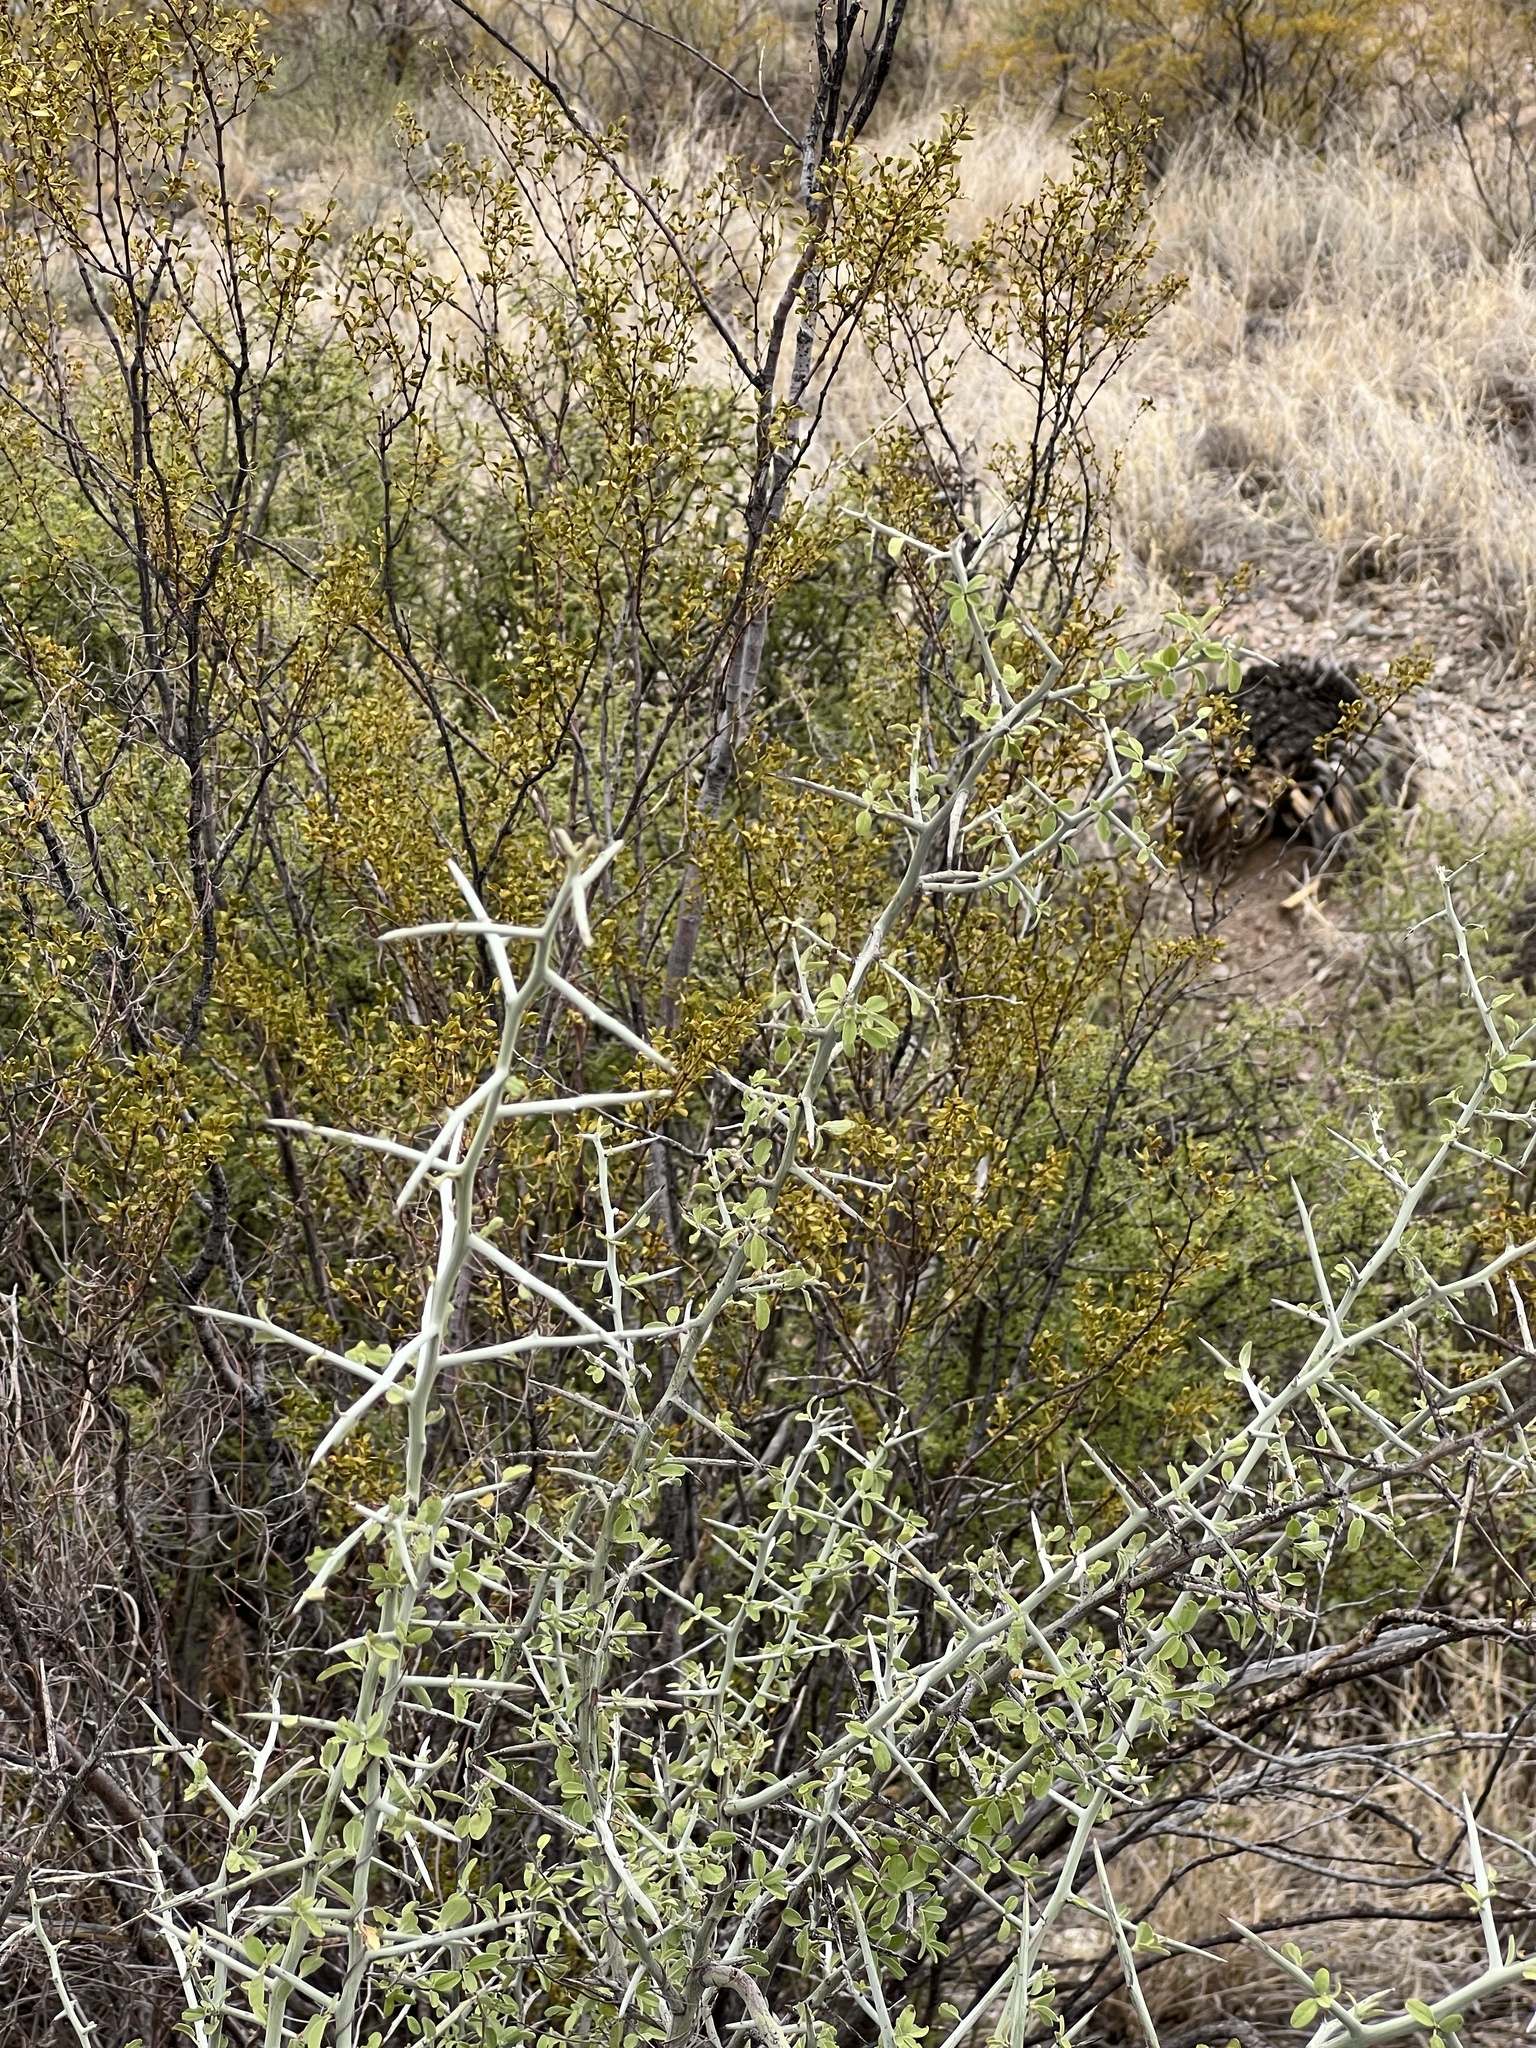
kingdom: Plantae
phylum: Tracheophyta
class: Magnoliopsida
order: Rosales
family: Rhamnaceae
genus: Sarcomphalus
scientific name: Sarcomphalus obtusifolius
